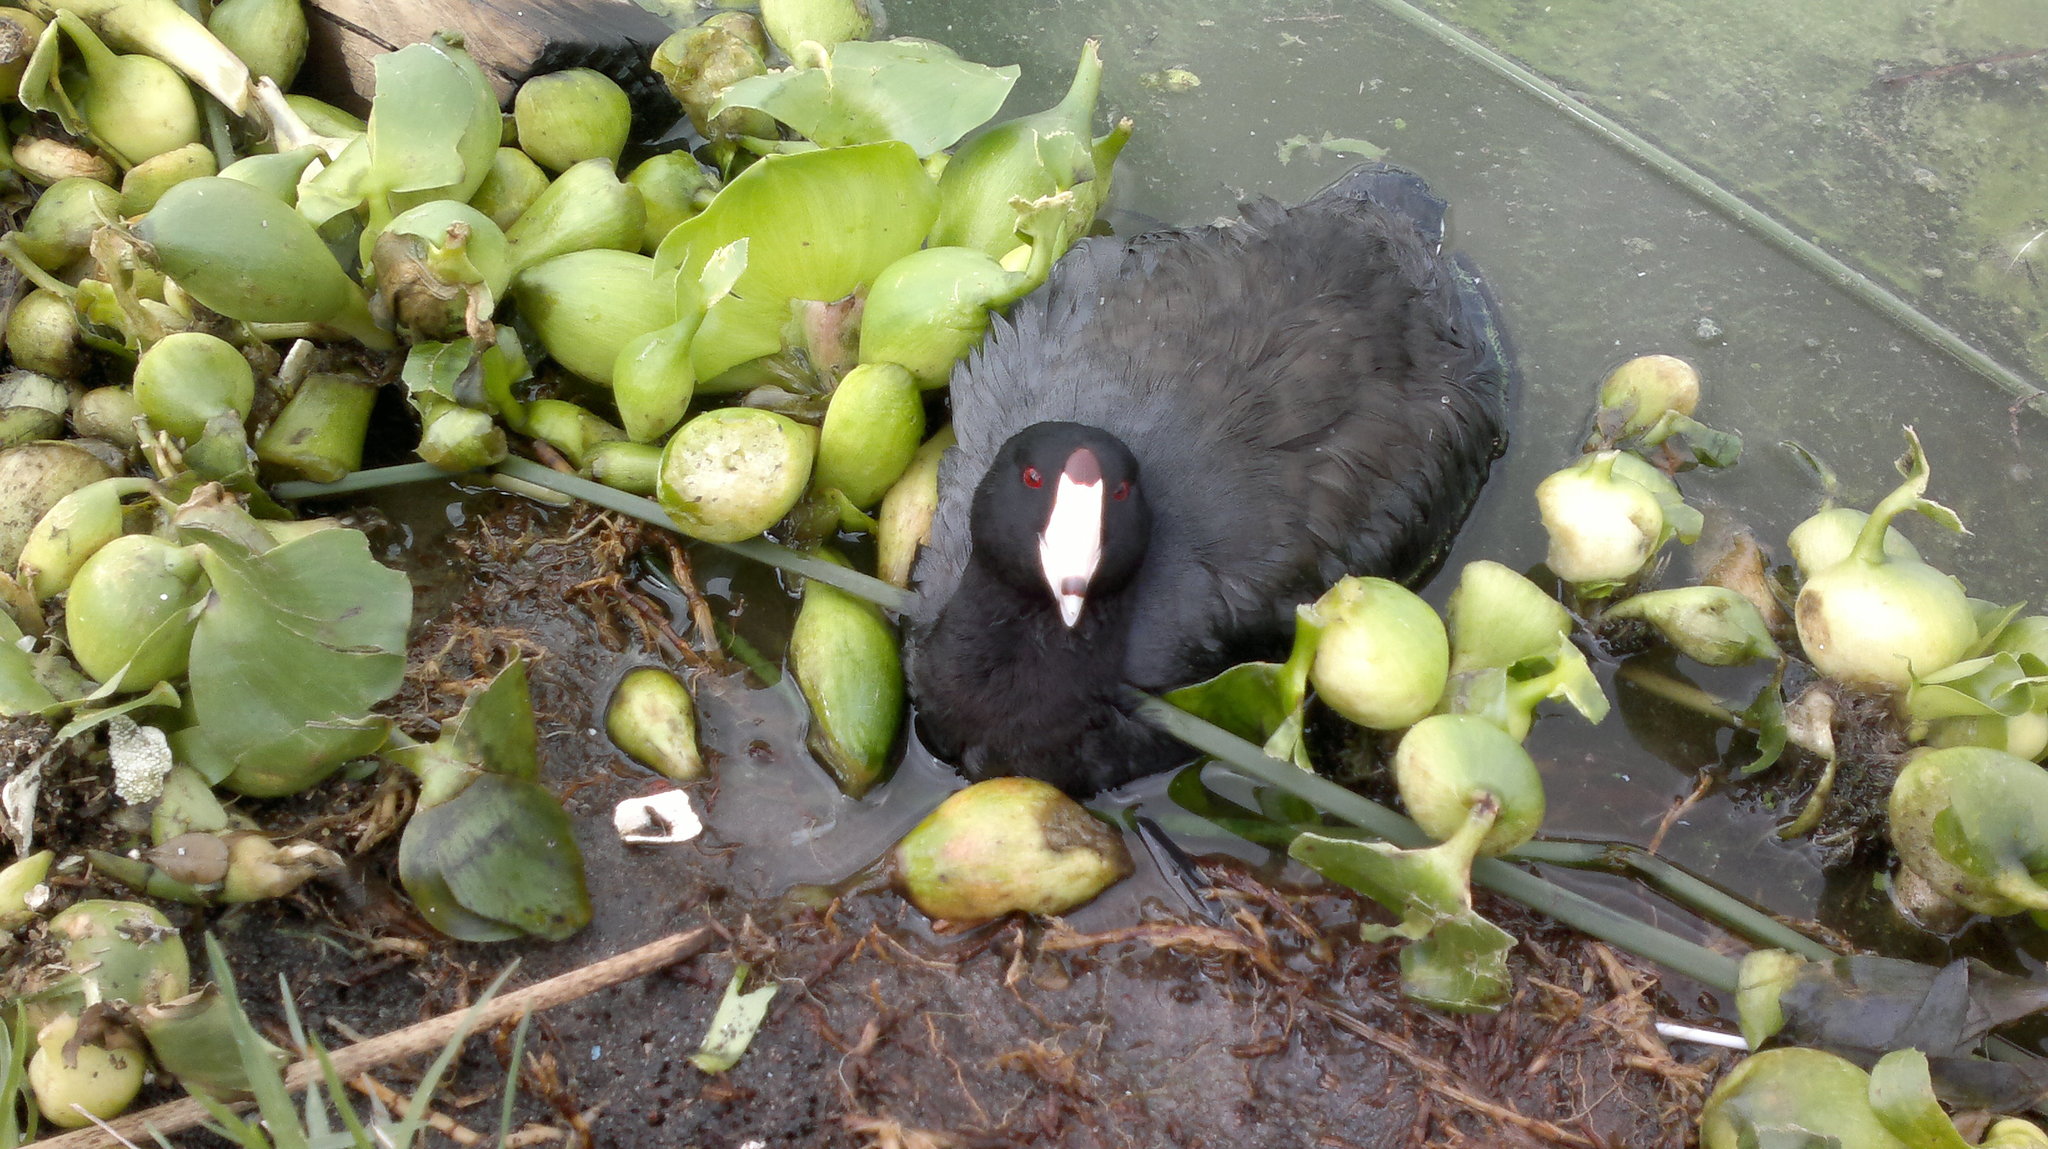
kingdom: Animalia
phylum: Chordata
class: Aves
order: Gruiformes
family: Rallidae
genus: Fulica
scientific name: Fulica americana
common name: American coot
